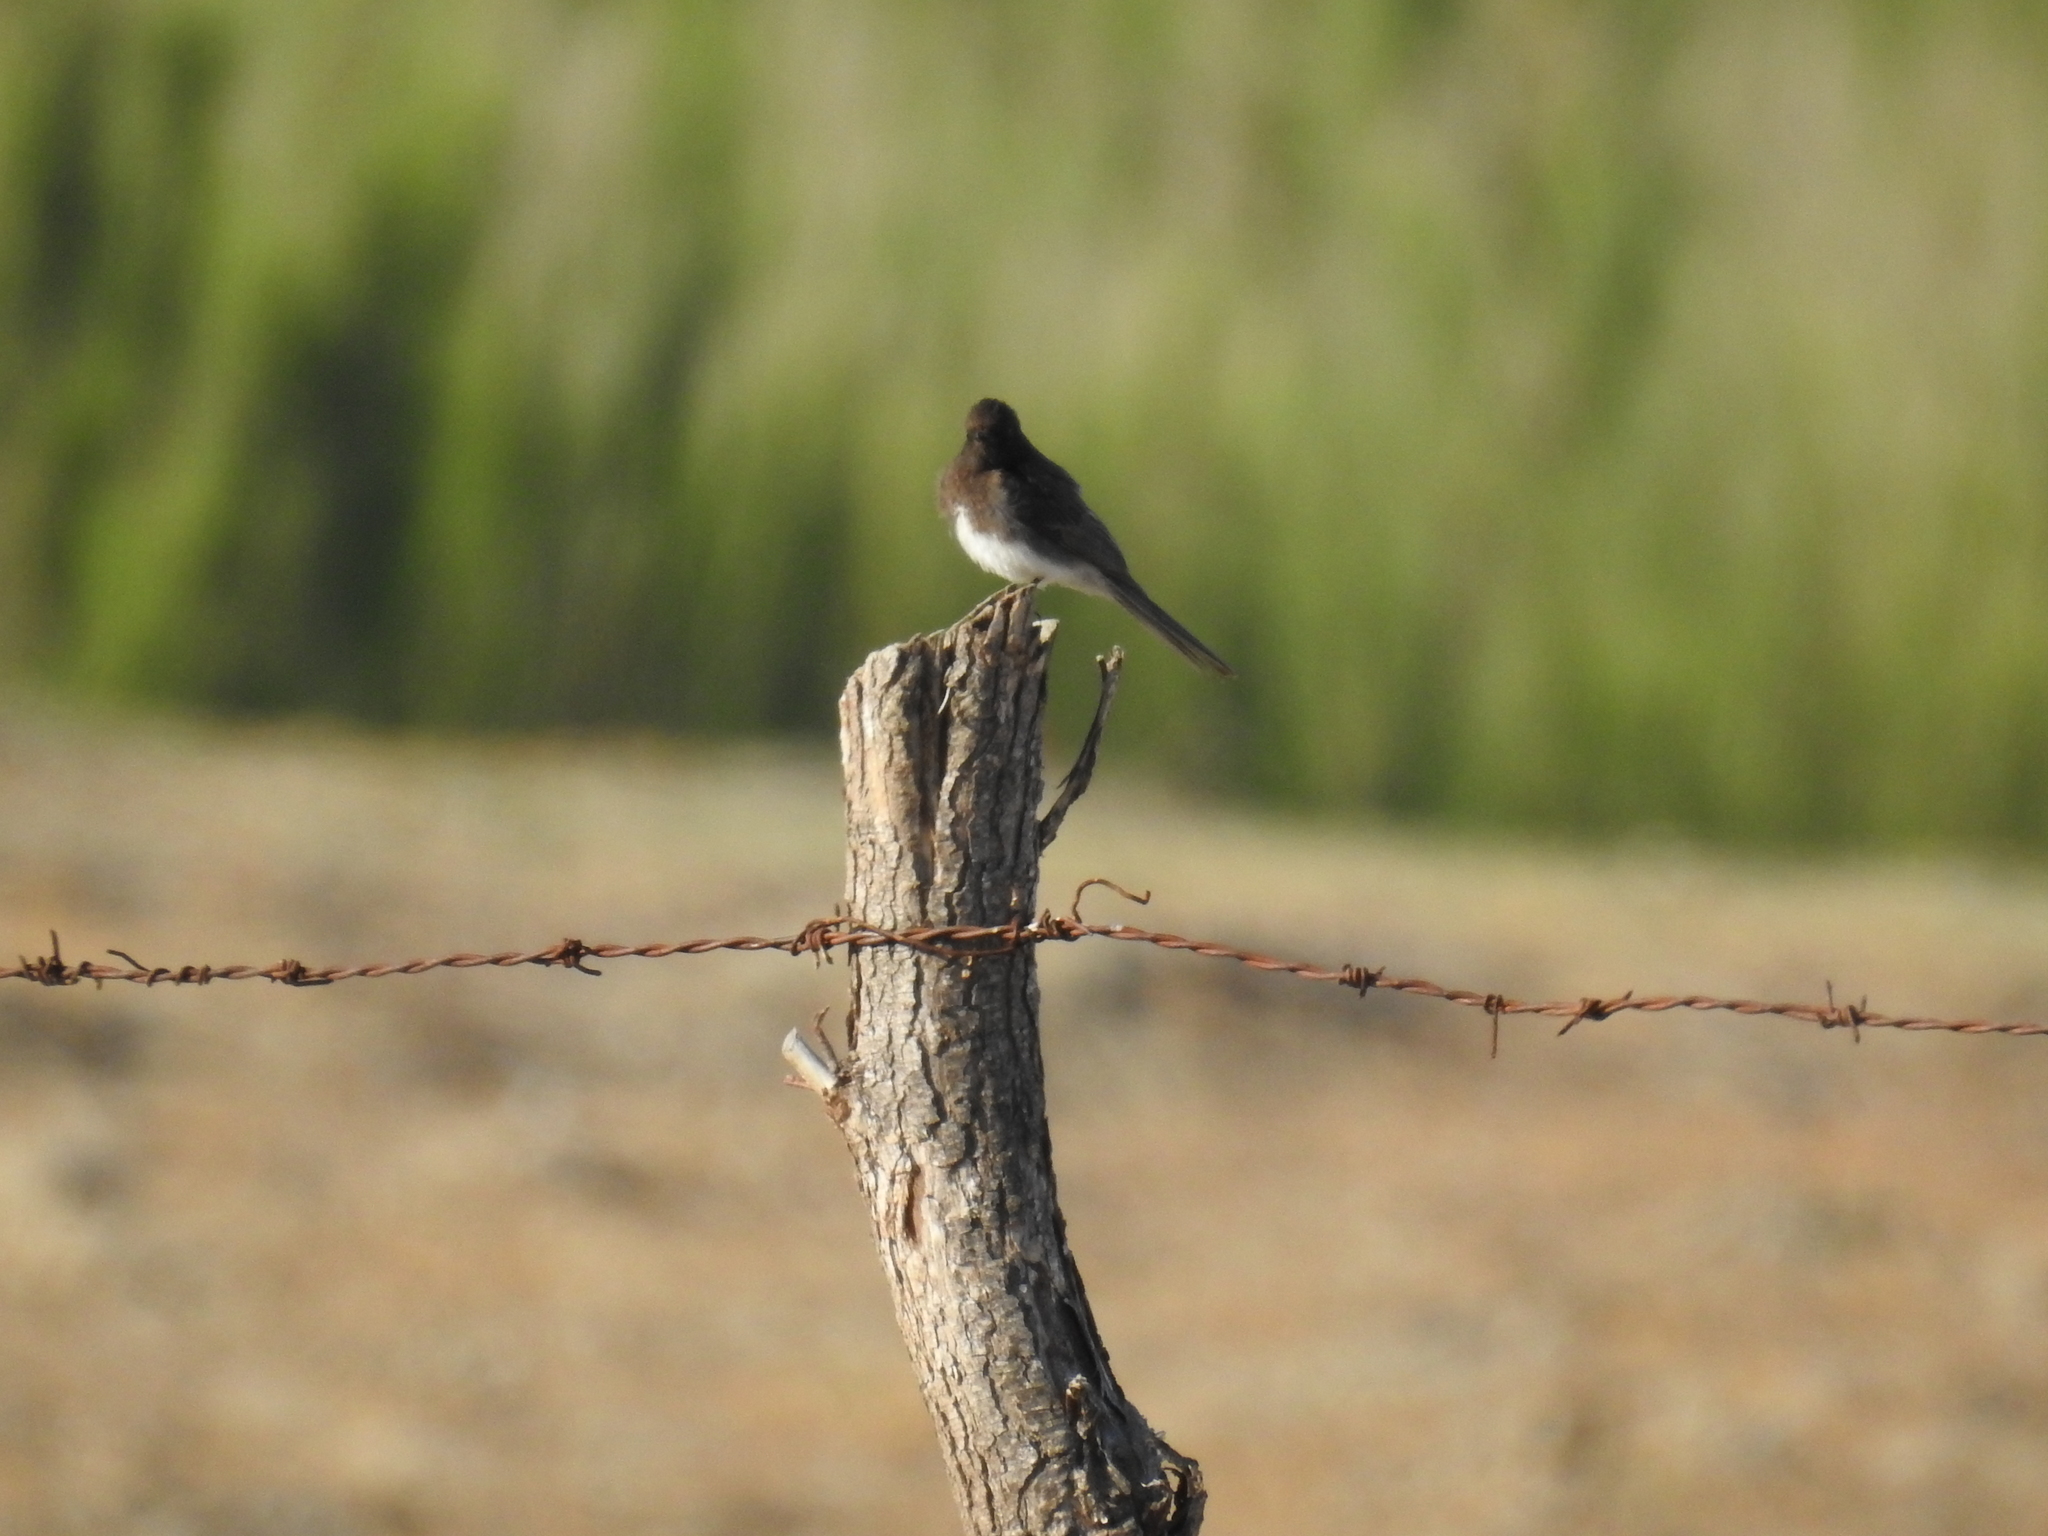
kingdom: Animalia
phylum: Chordata
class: Aves
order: Passeriformes
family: Tyrannidae
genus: Sayornis
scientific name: Sayornis nigricans
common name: Black phoebe
